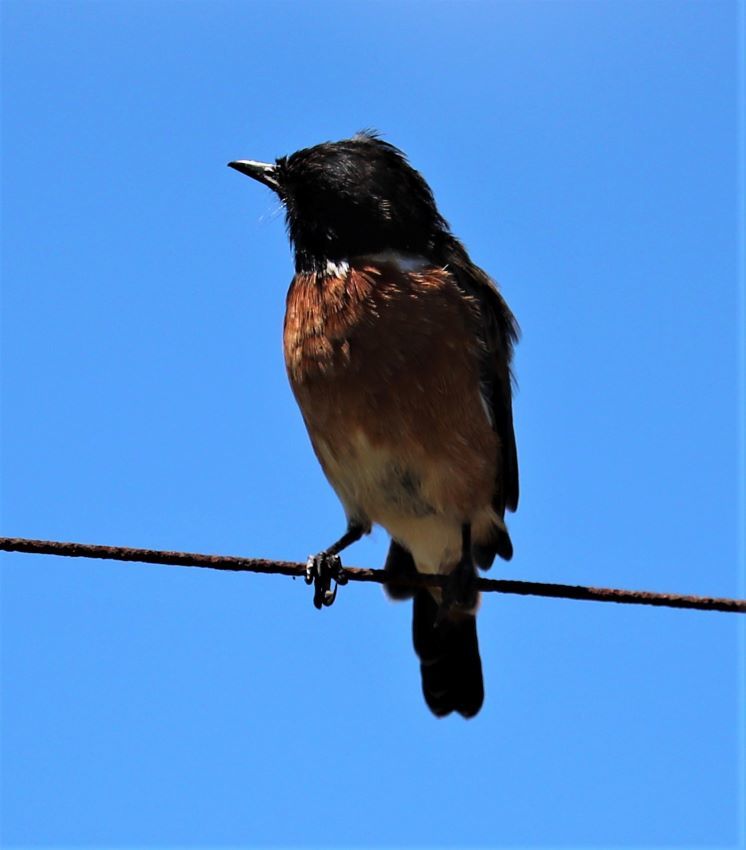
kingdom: Animalia
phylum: Chordata
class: Aves
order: Passeriformes
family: Muscicapidae
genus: Saxicola
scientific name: Saxicola torquatus
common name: African stonechat
